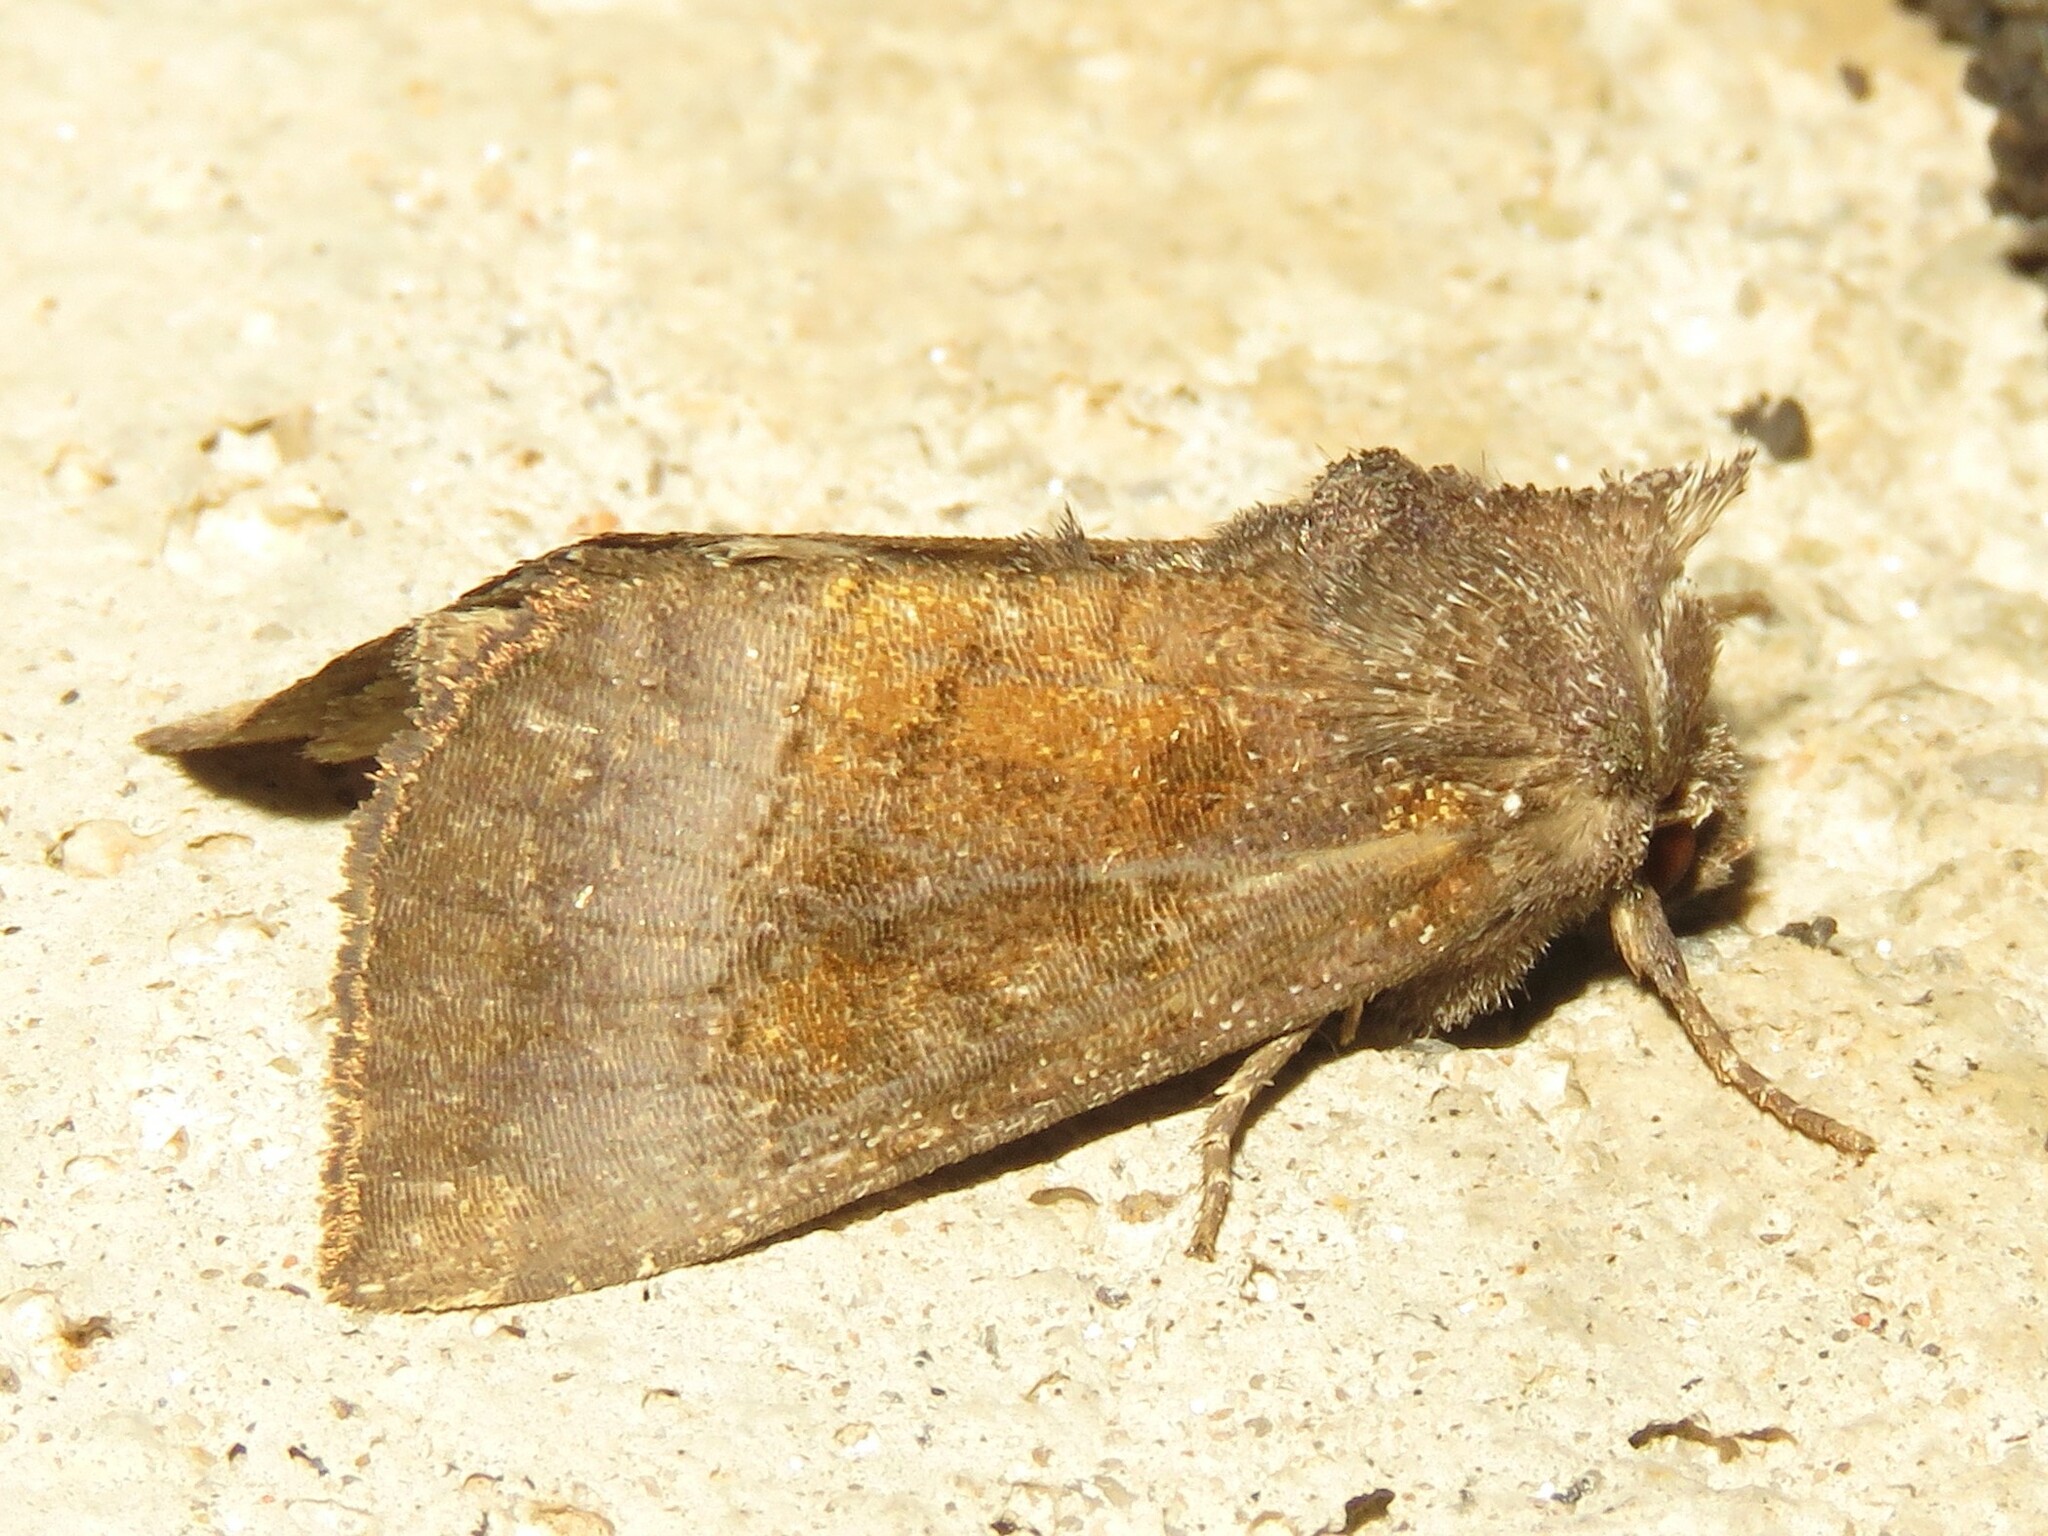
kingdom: Animalia
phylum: Arthropoda
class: Insecta
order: Lepidoptera
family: Noctuidae
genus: Papaipema
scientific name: Papaipema nelita
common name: Coneflower borer moth
